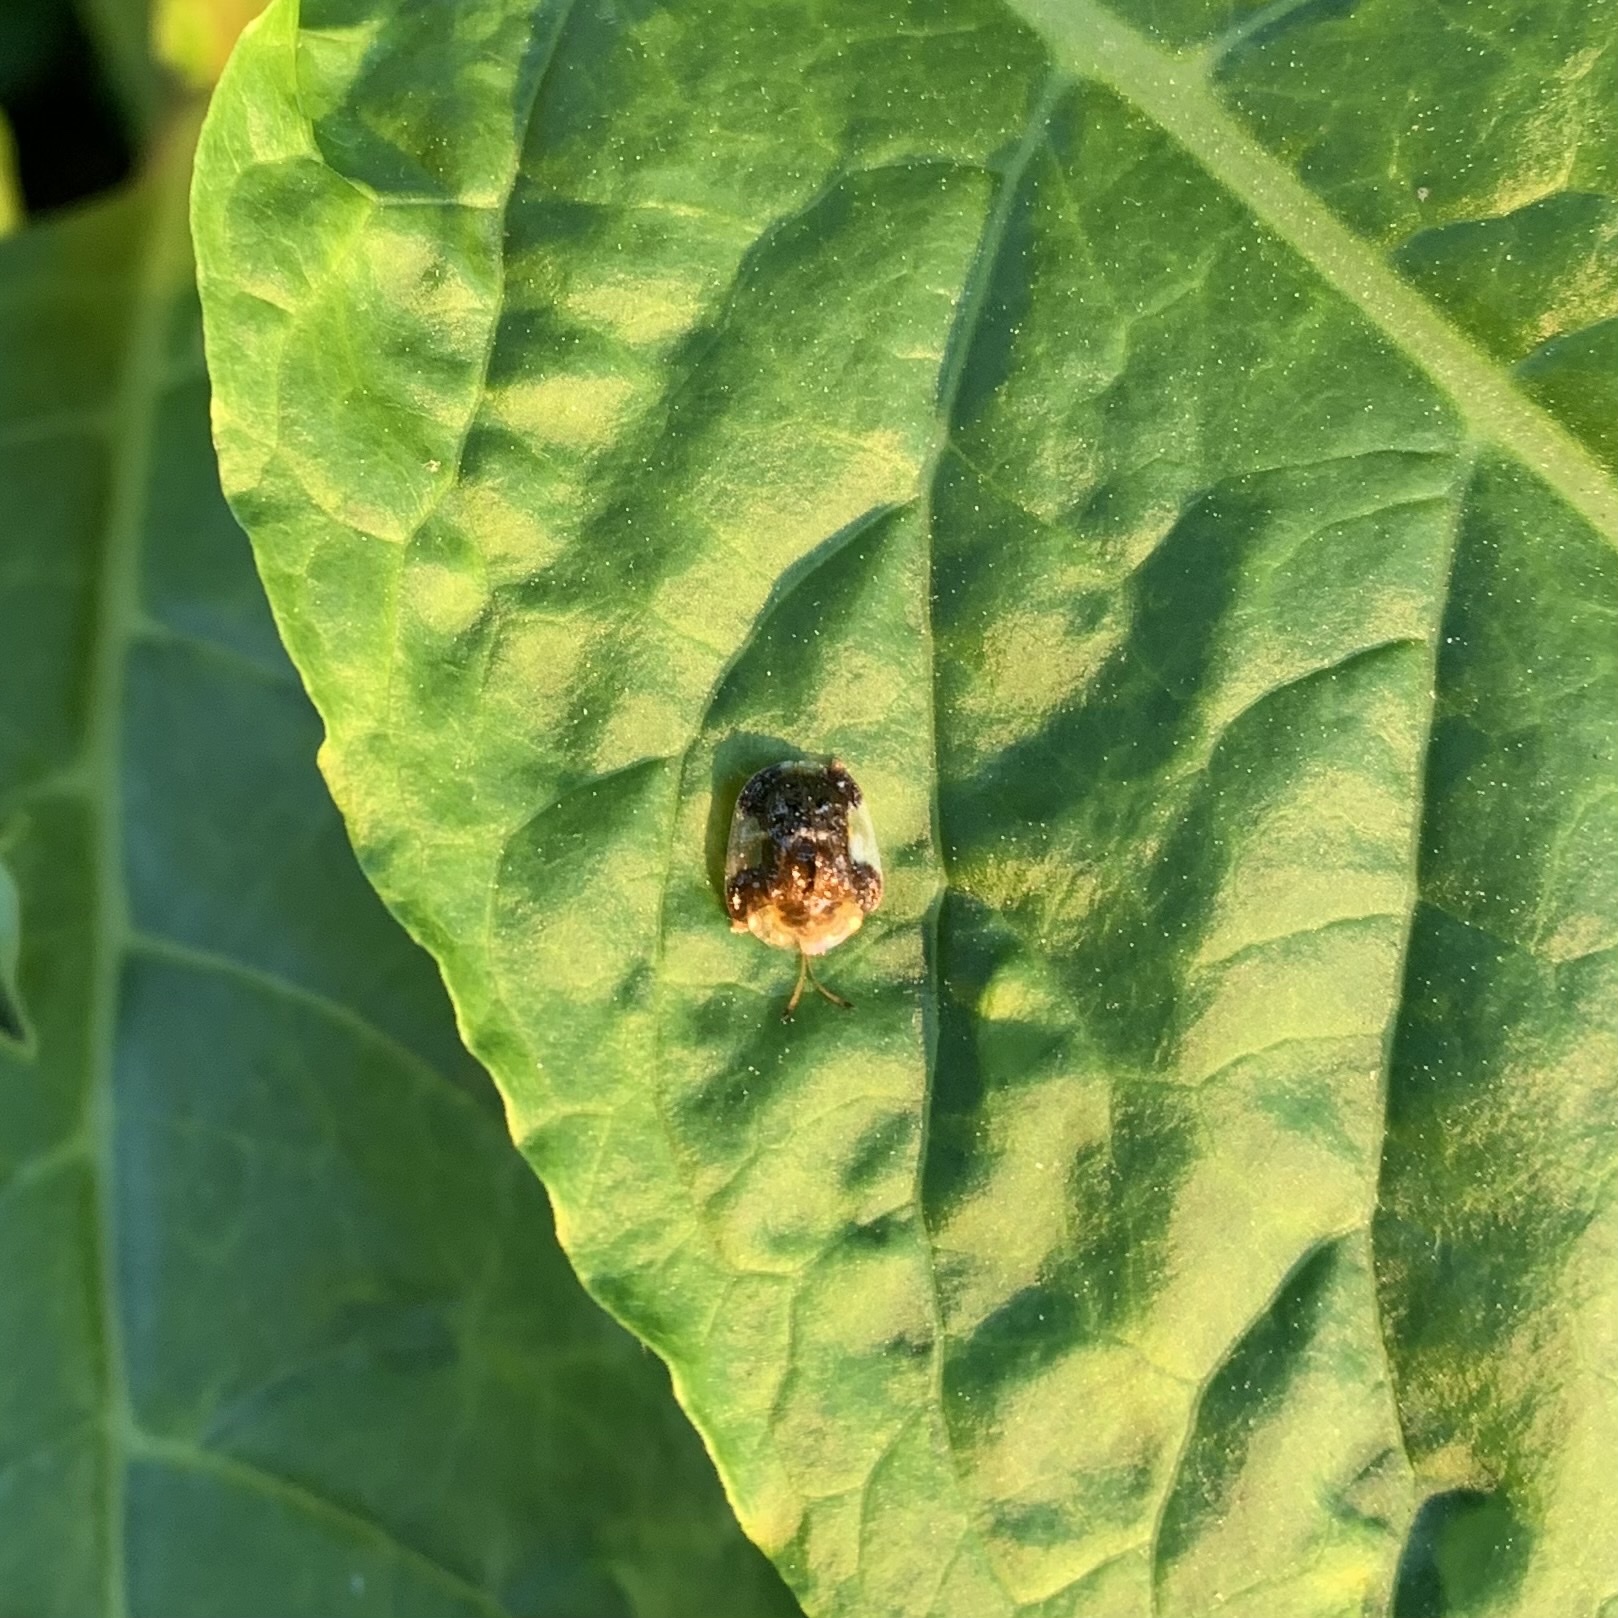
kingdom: Animalia
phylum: Arthropoda
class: Insecta
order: Coleoptera
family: Chrysomelidae
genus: Helocassis
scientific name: Helocassis clavata
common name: Clavate tortoise beetle
